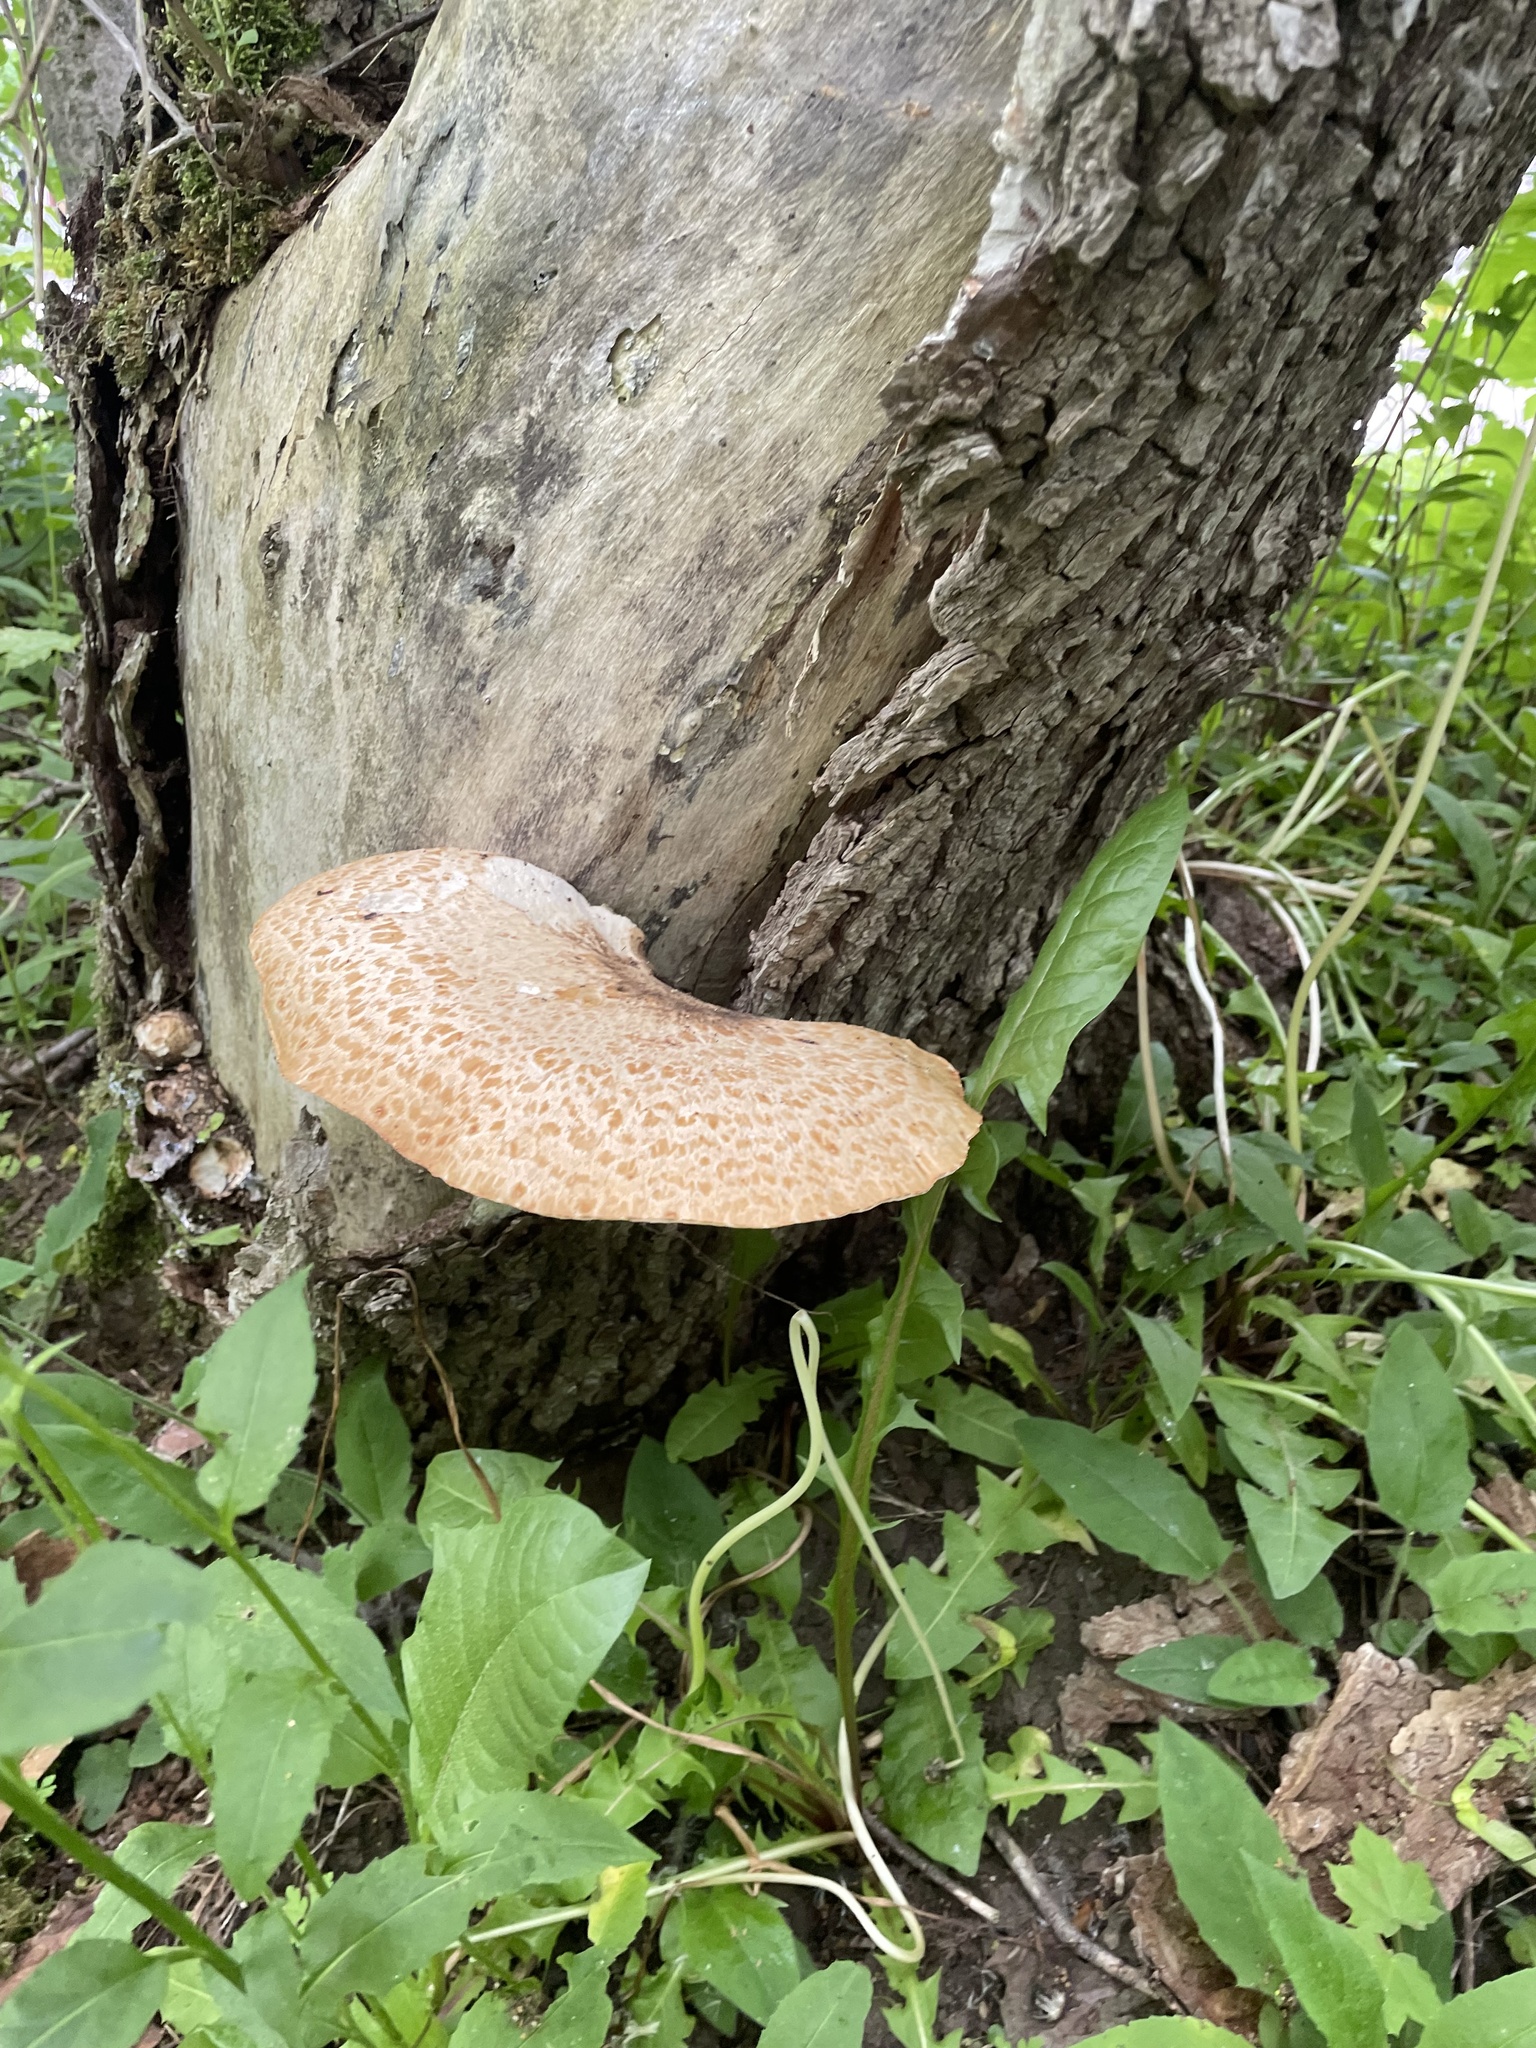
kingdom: Fungi
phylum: Basidiomycota
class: Agaricomycetes
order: Polyporales
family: Polyporaceae
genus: Cerioporus
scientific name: Cerioporus squamosus
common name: Dryad's saddle
